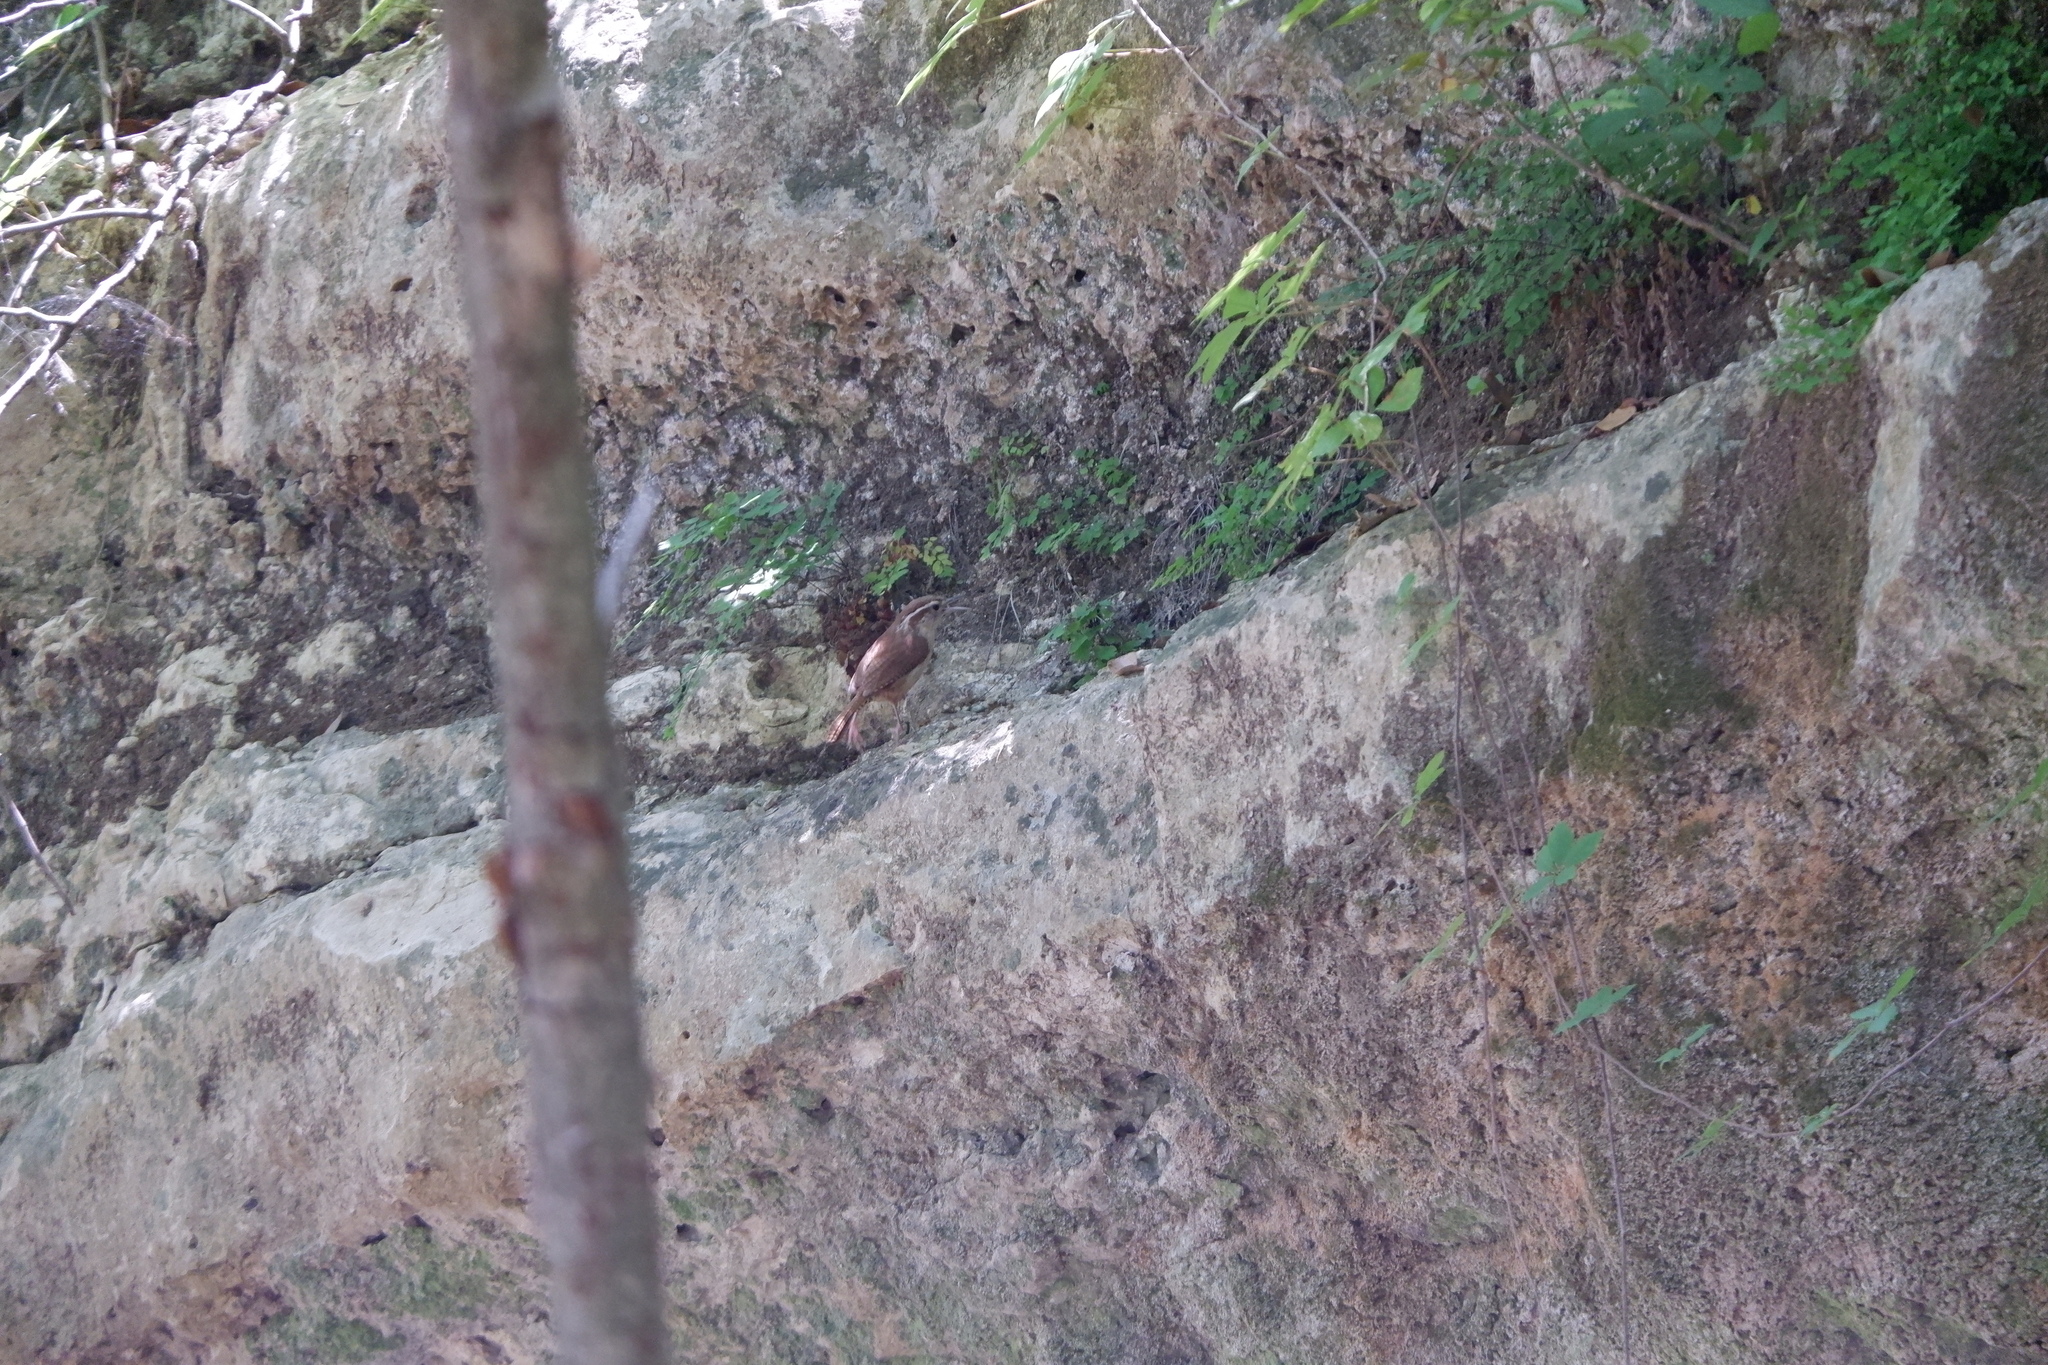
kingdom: Animalia
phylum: Chordata
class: Aves
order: Passeriformes
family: Troglodytidae
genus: Thryothorus
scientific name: Thryothorus ludovicianus
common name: Carolina wren
